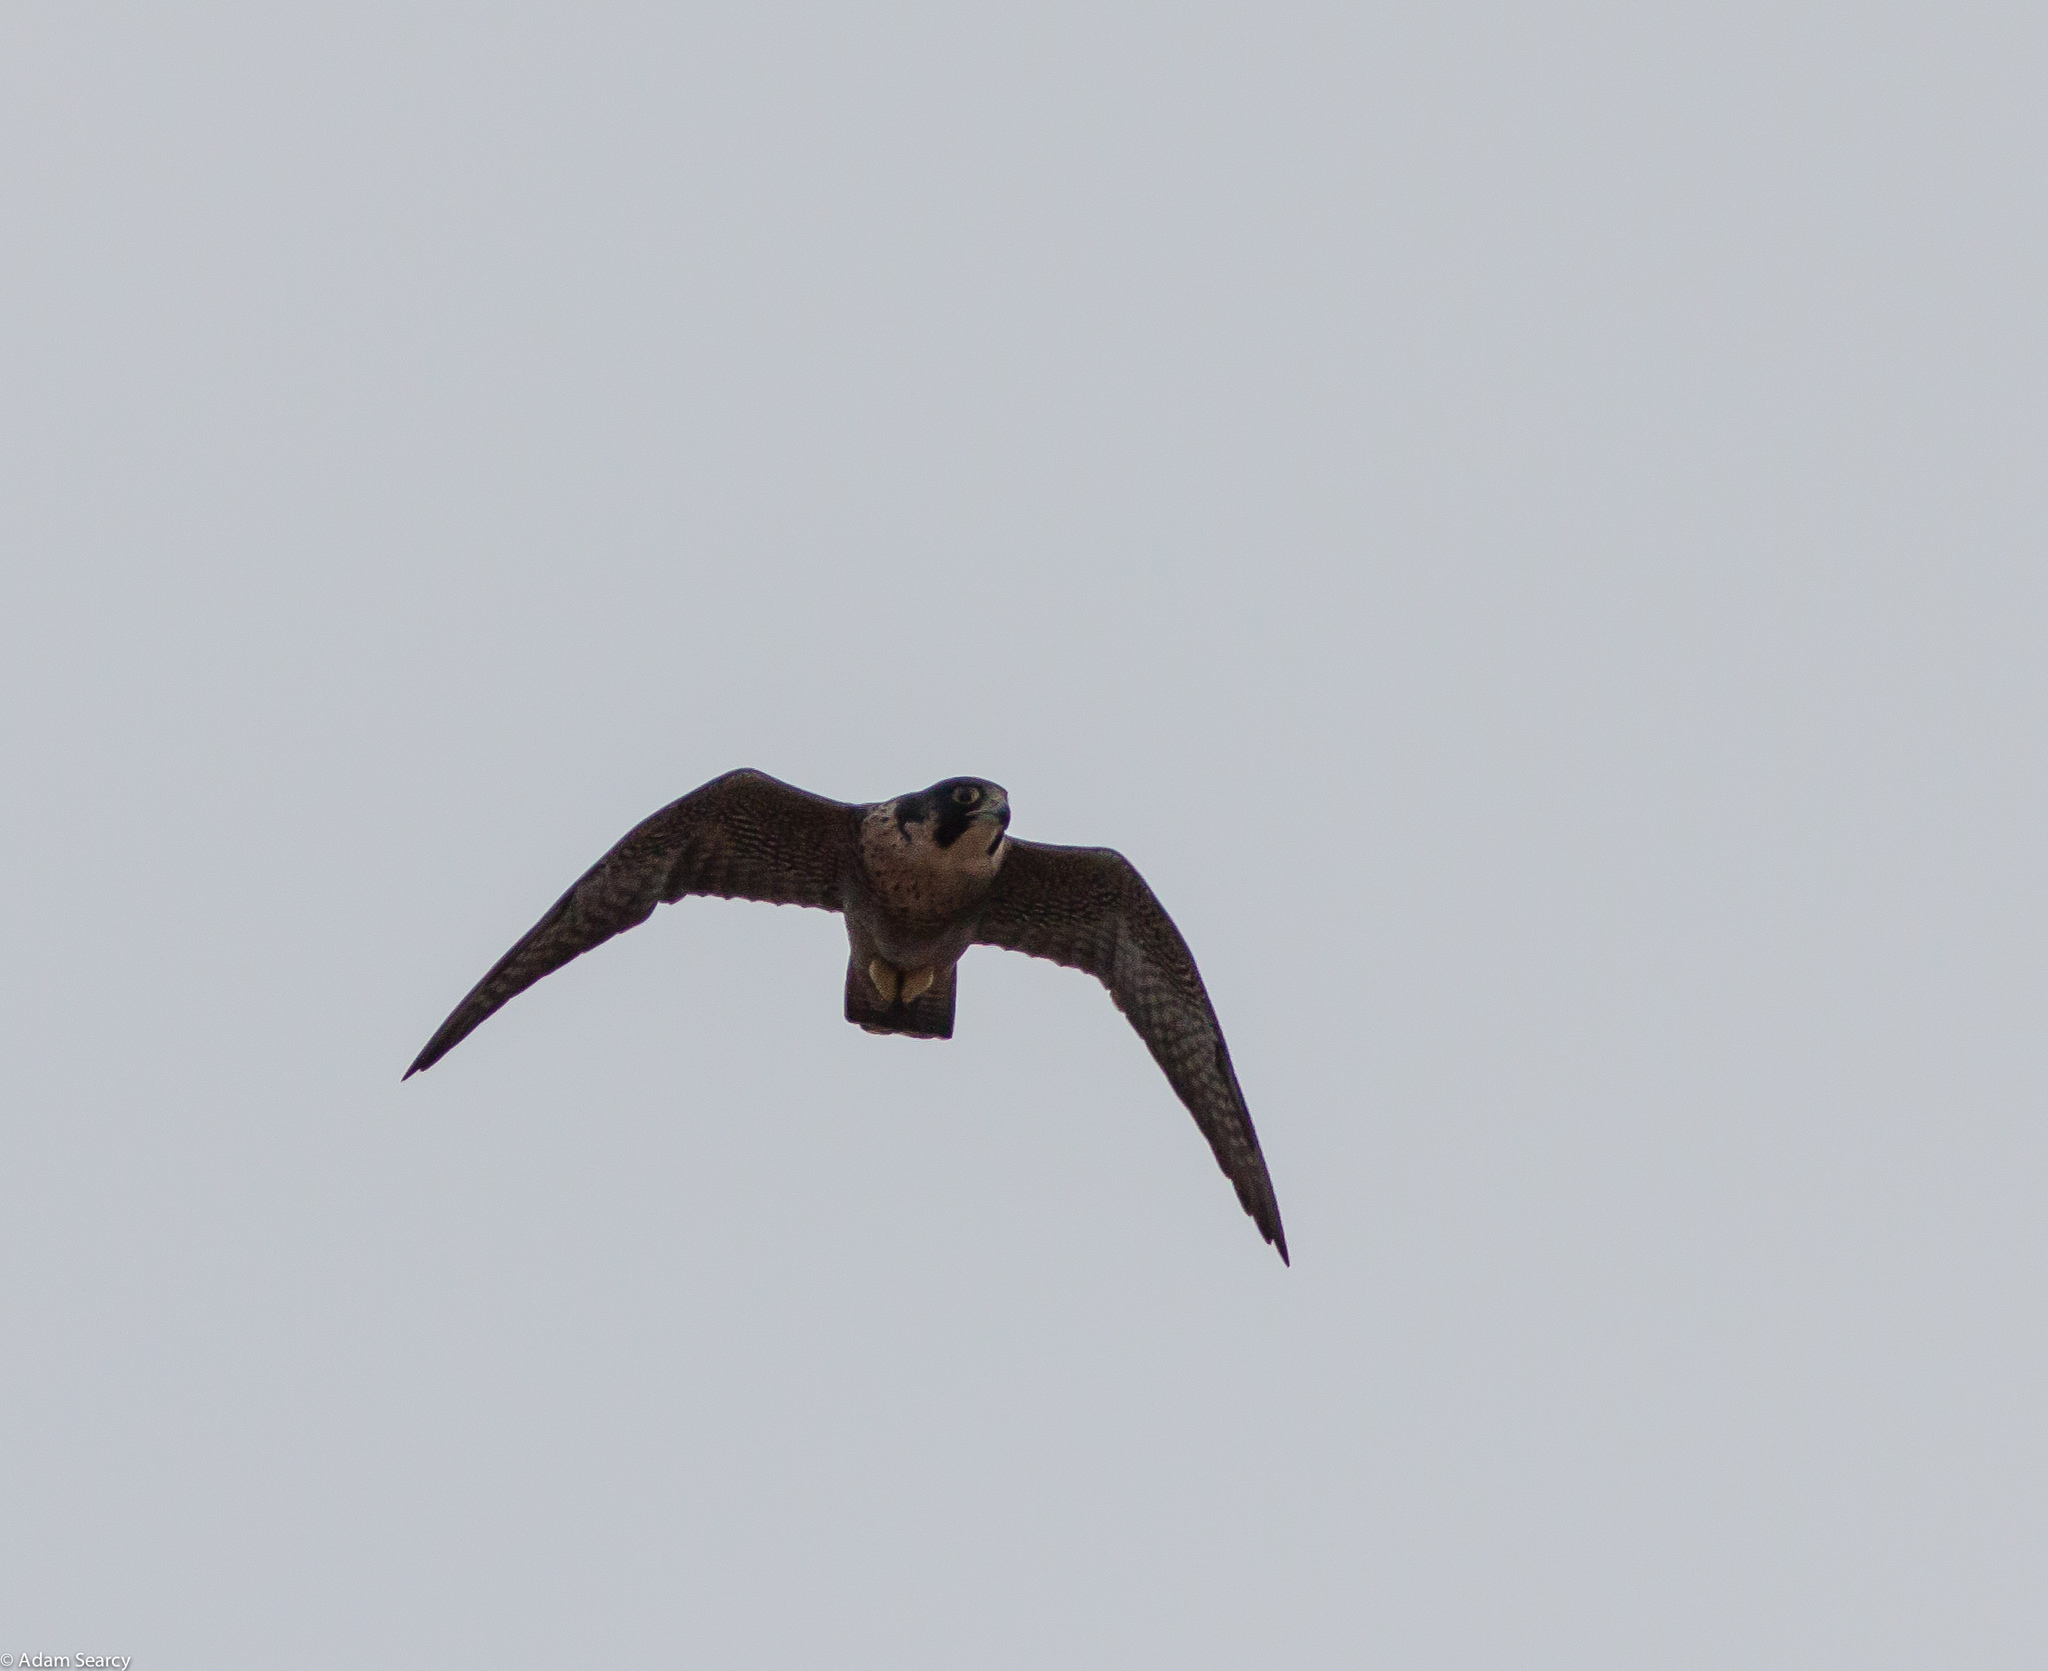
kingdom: Animalia
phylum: Chordata
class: Aves
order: Falconiformes
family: Falconidae
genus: Falco
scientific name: Falco peregrinus
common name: Peregrine falcon
